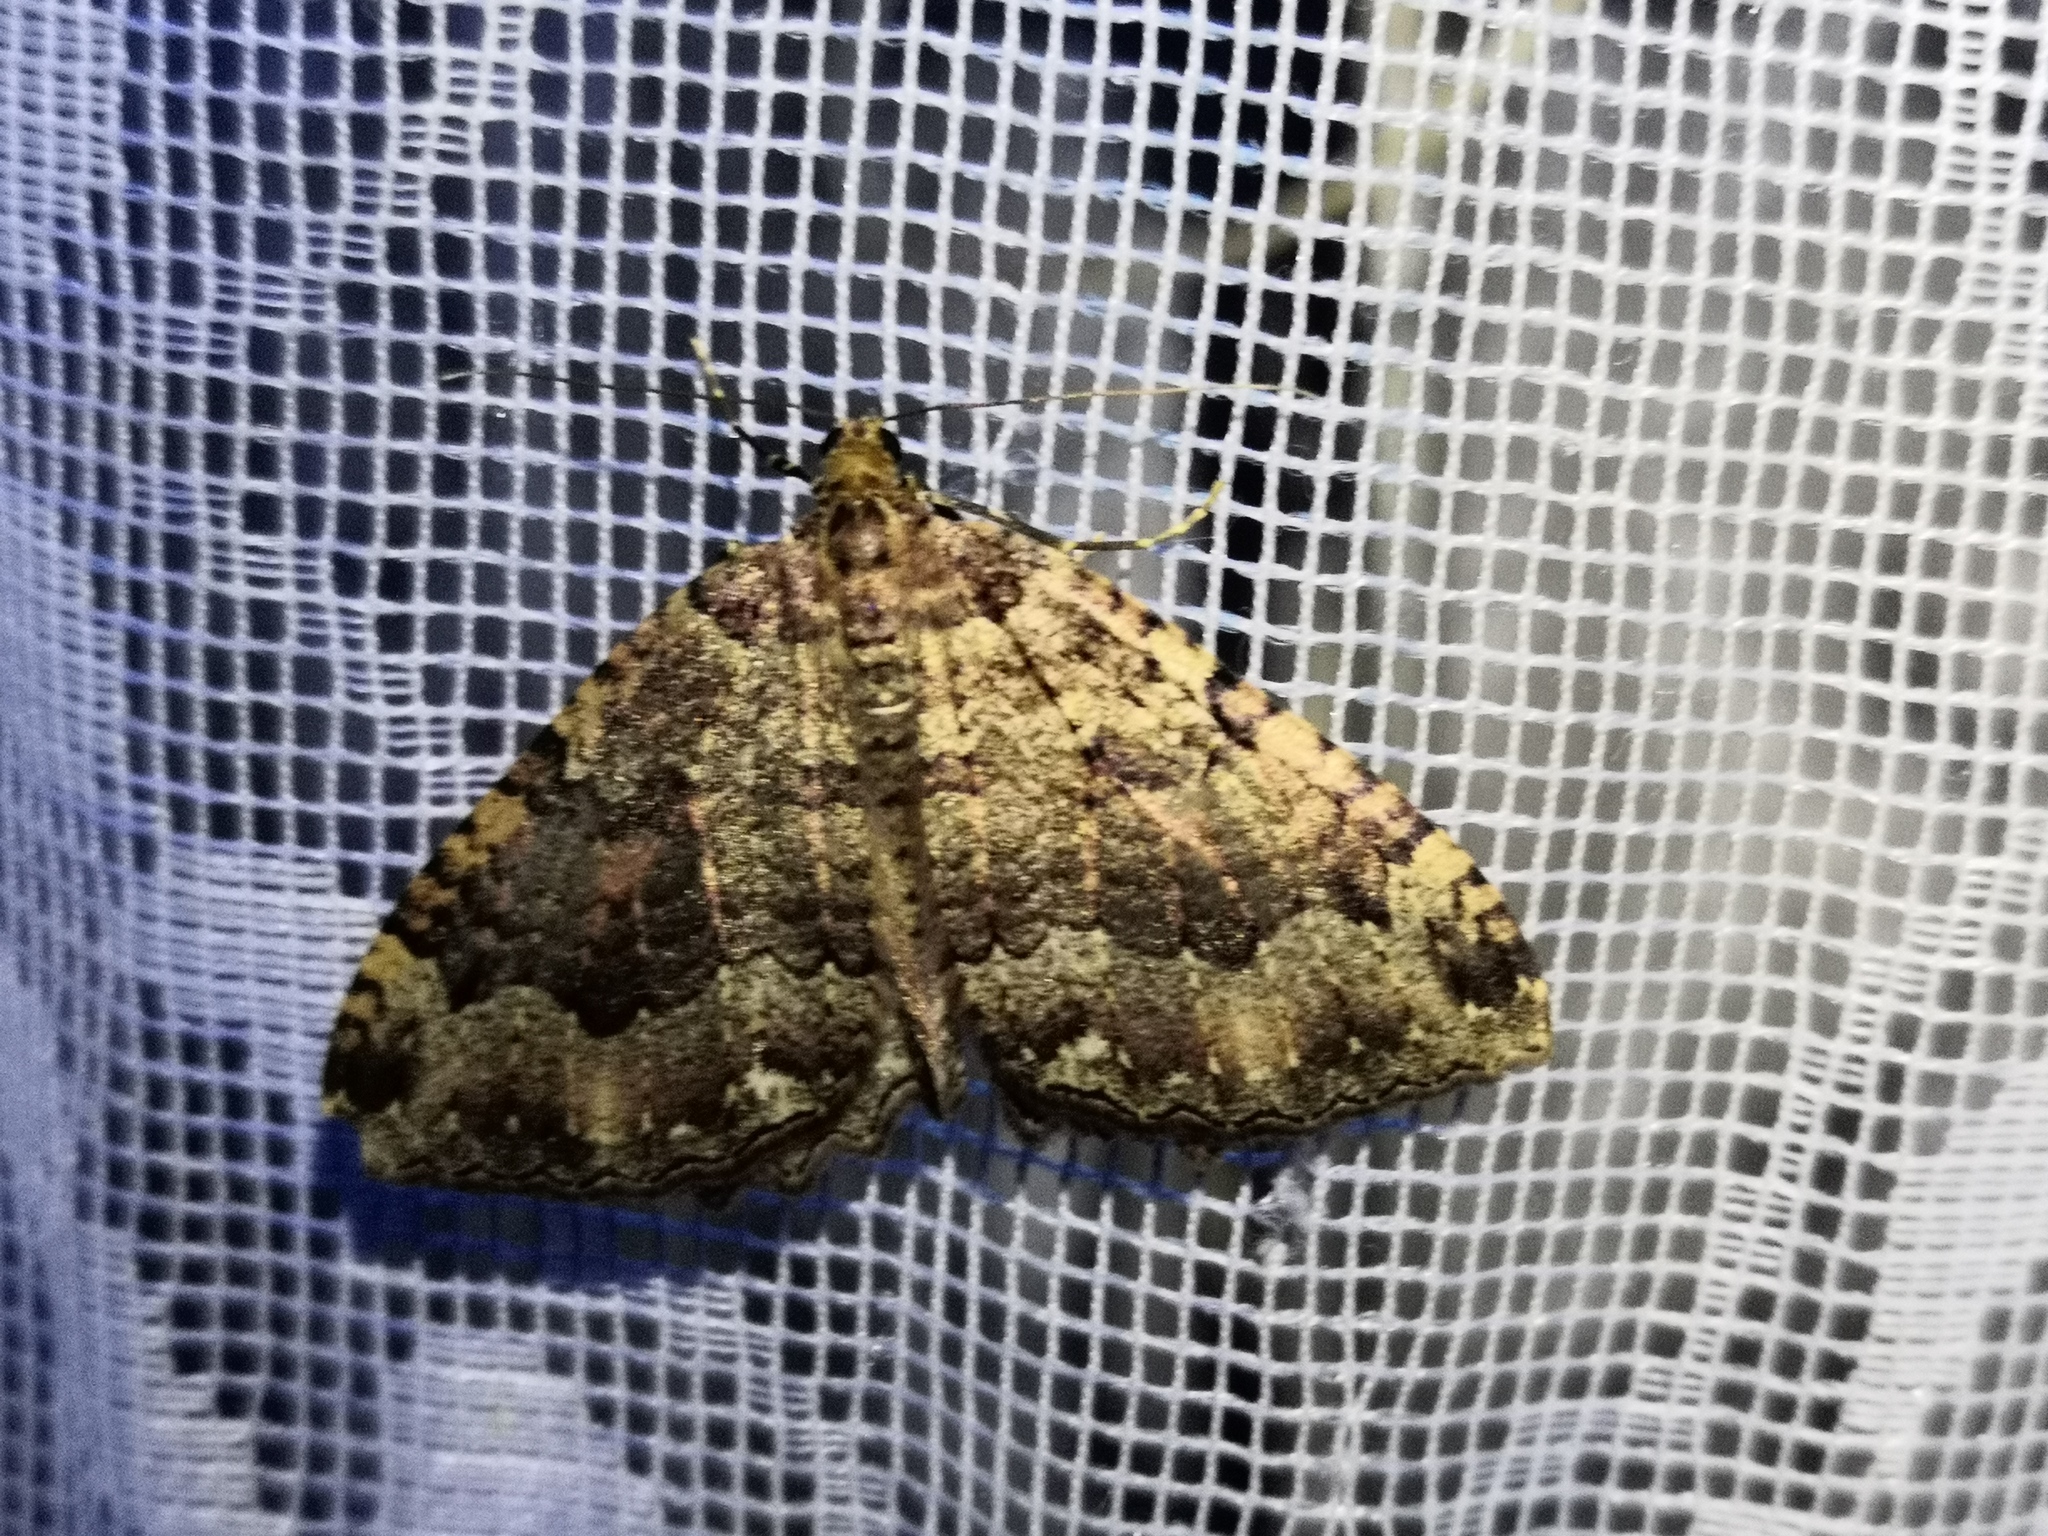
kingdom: Animalia
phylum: Arthropoda
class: Insecta
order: Lepidoptera
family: Geometridae
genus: Triphosa
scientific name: Triphosa dubitata
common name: Tissue
